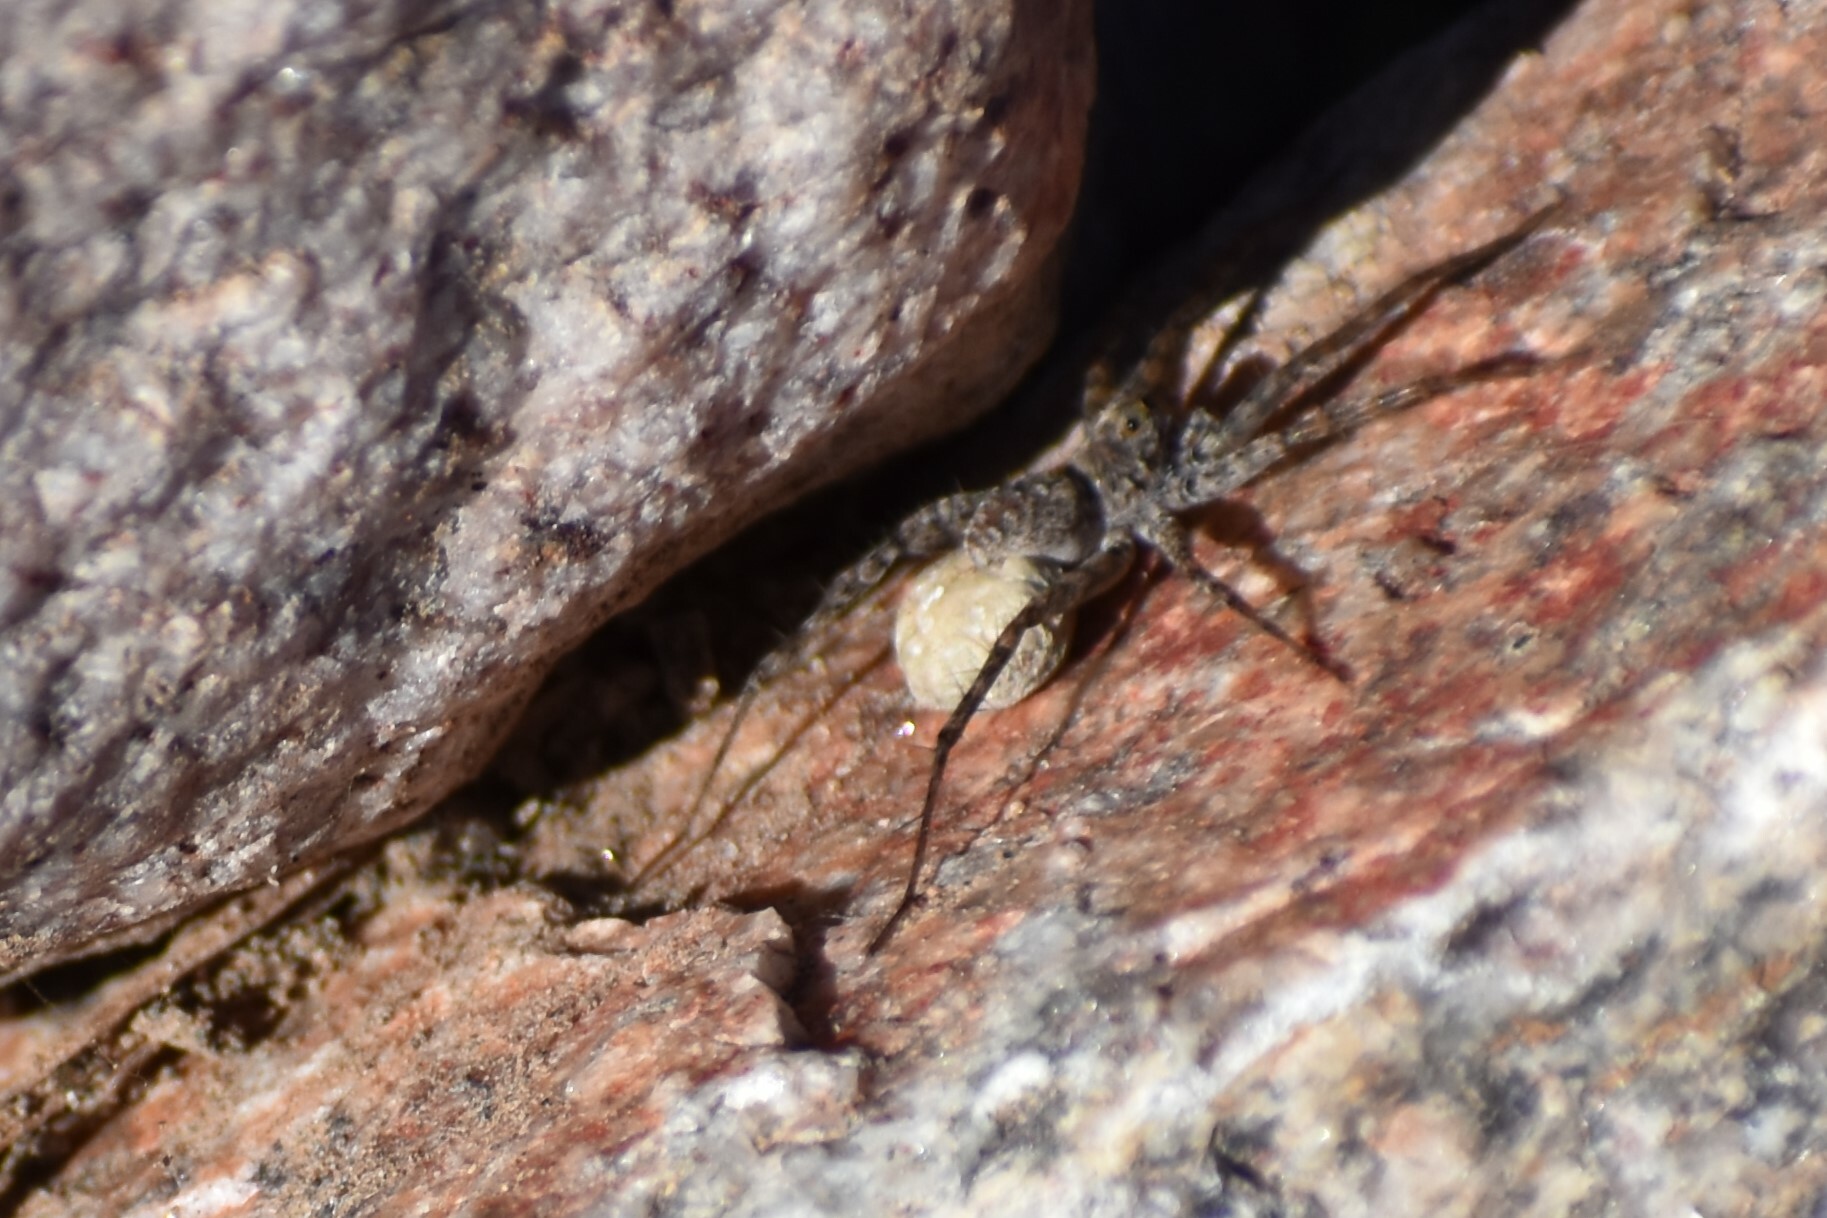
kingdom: Animalia
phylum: Arthropoda
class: Arachnida
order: Araneae
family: Lycosidae
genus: Pardosa
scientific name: Pardosa
